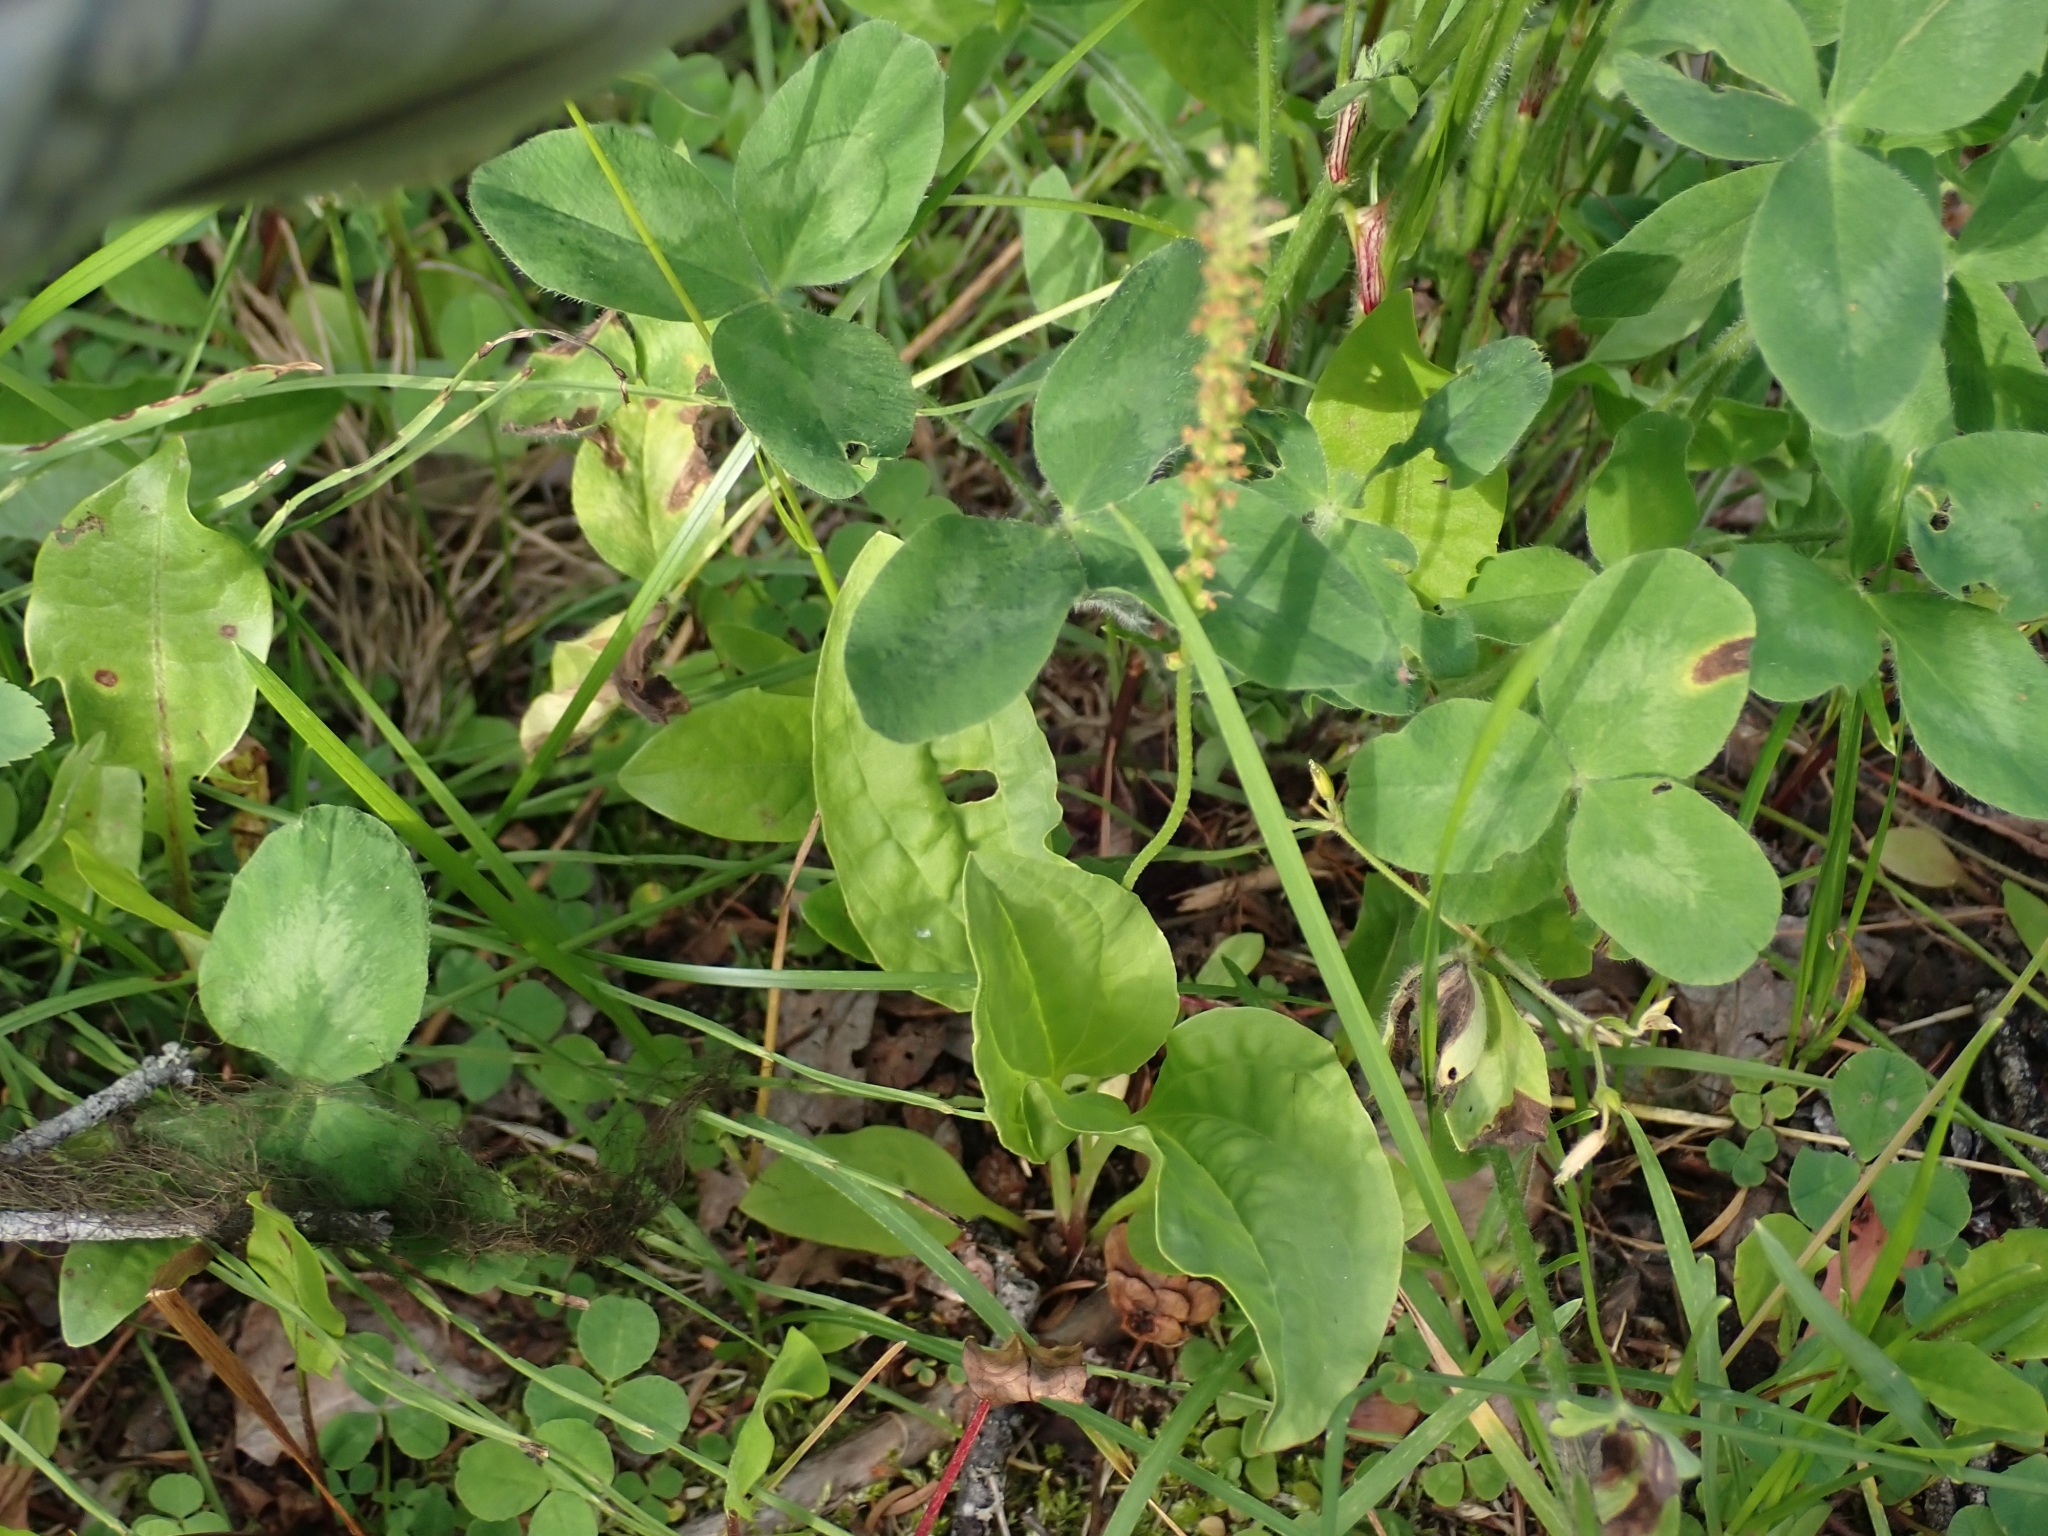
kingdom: Plantae
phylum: Tracheophyta
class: Magnoliopsida
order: Lamiales
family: Plantaginaceae
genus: Plantago
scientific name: Plantago major
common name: Common plantain
